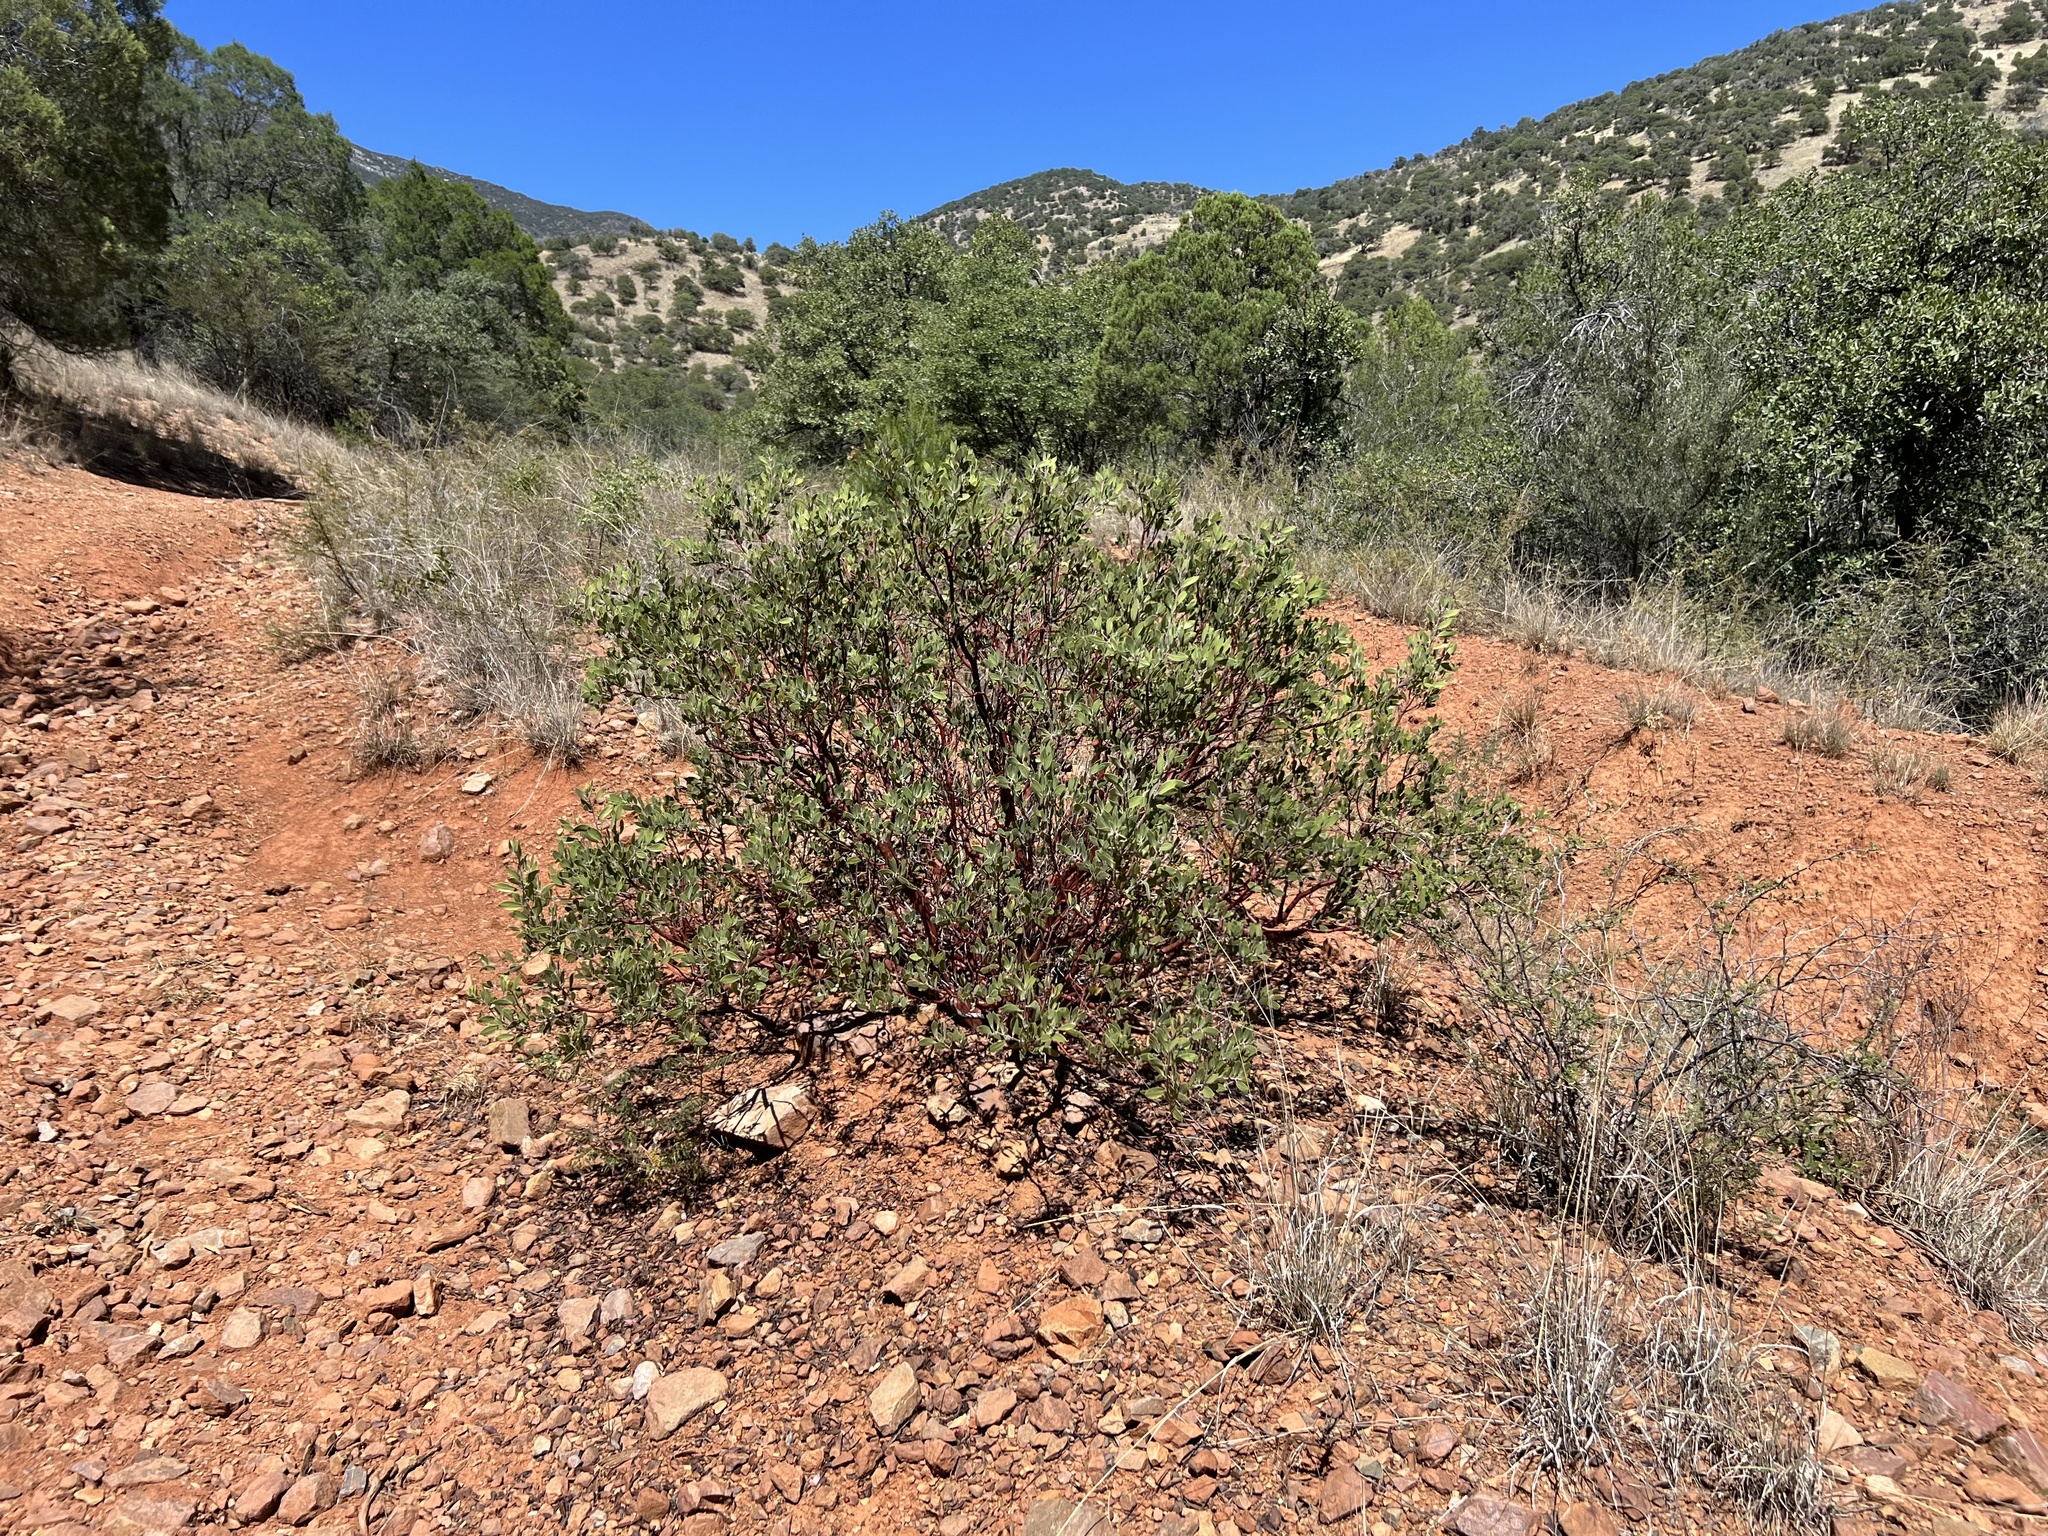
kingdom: Plantae
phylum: Tracheophyta
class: Magnoliopsida
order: Ericales
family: Ericaceae
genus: Arctostaphylos
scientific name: Arctostaphylos pungens
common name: Mexican manzanita
